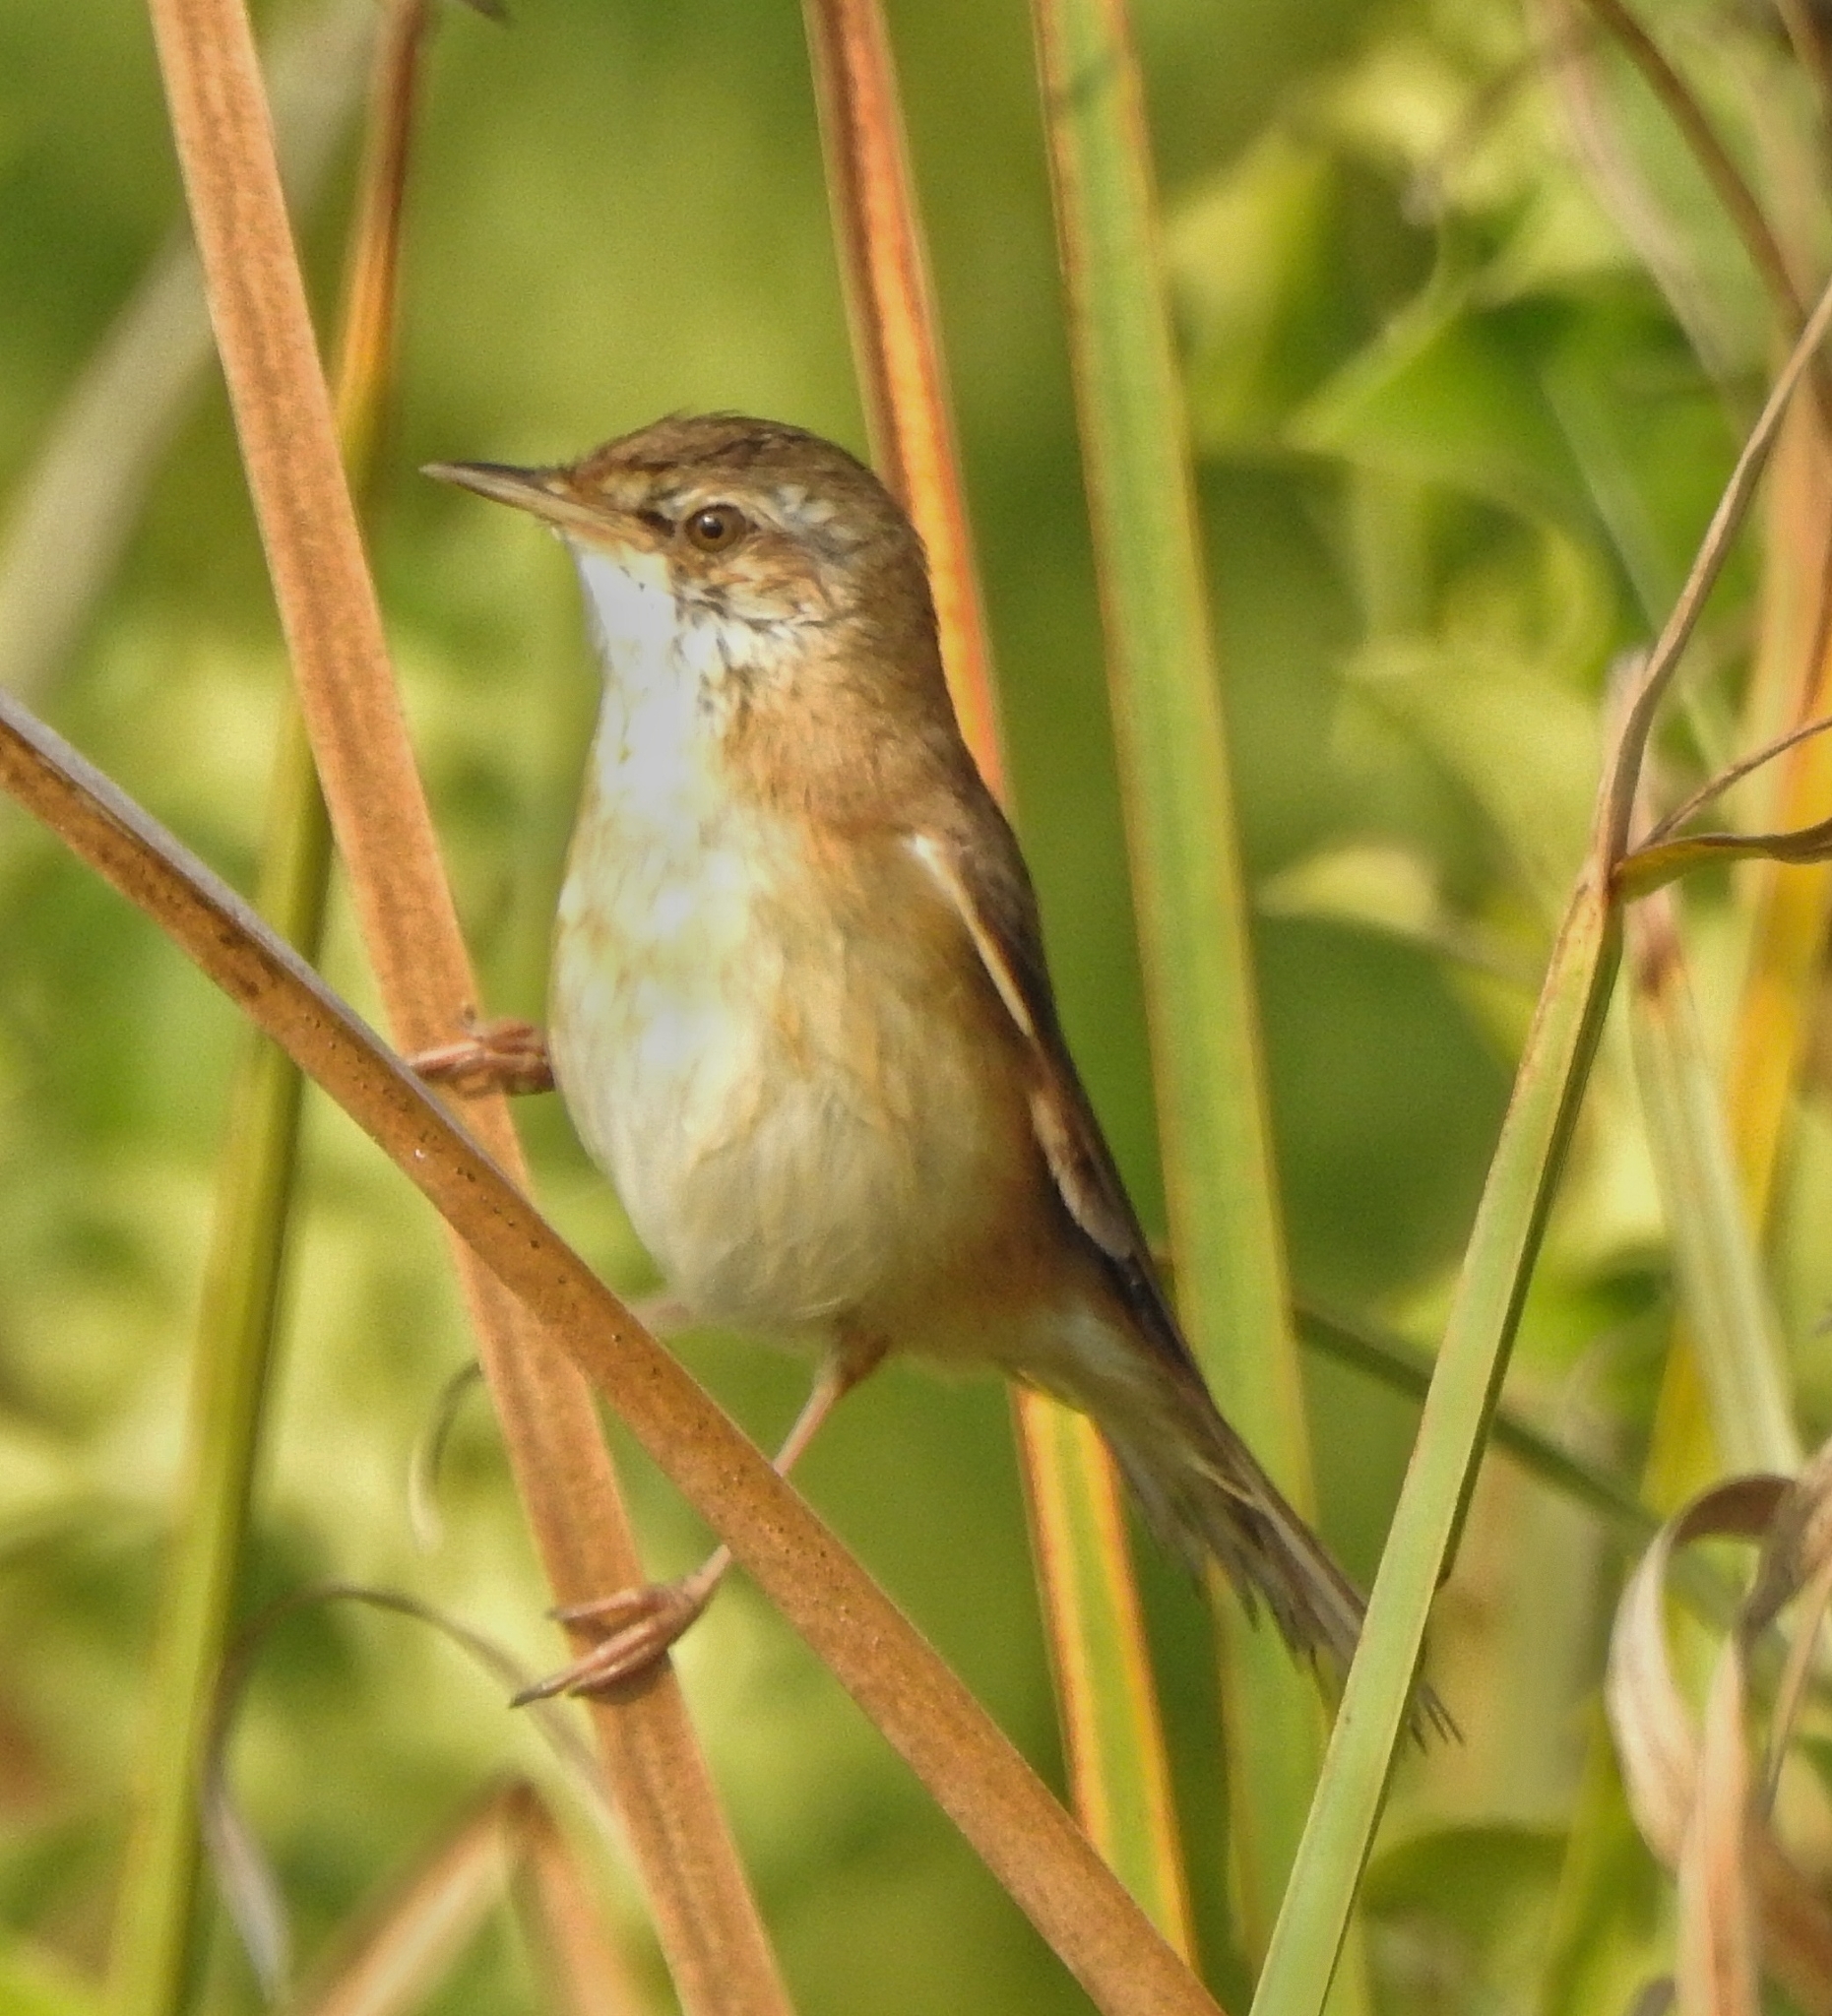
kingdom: Animalia
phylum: Chordata
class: Aves
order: Passeriformes
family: Acrocephalidae
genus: Acrocephalus
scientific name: Acrocephalus agricola
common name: Paddyfield warbler
